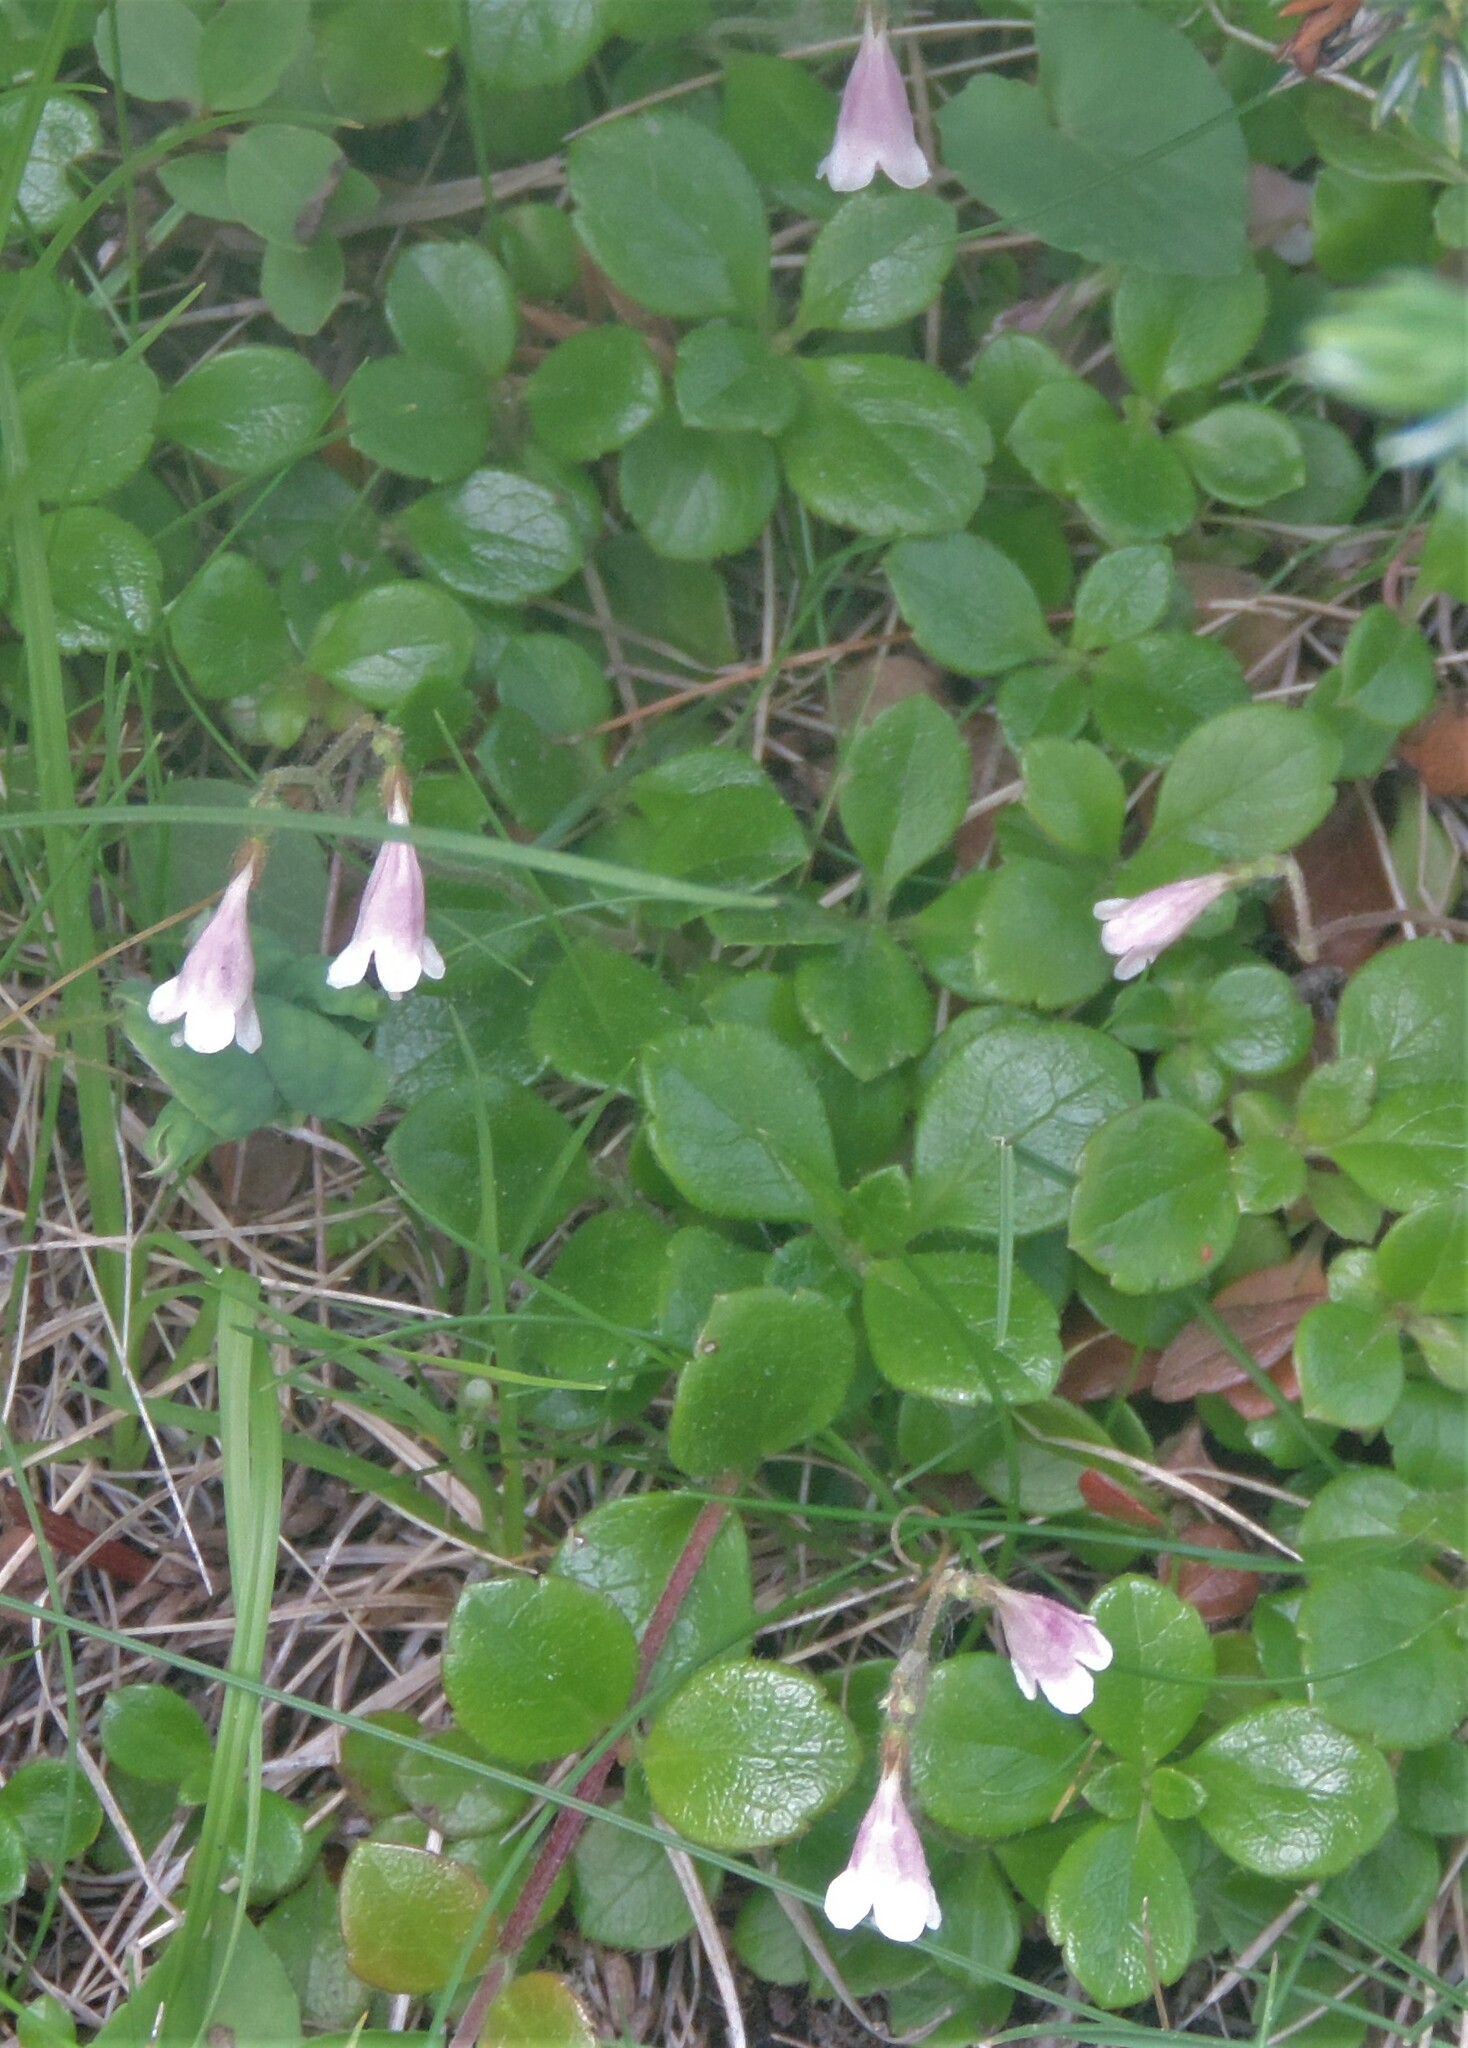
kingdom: Plantae
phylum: Tracheophyta
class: Magnoliopsida
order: Dipsacales
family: Caprifoliaceae
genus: Linnaea
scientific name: Linnaea borealis
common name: Twinflower
